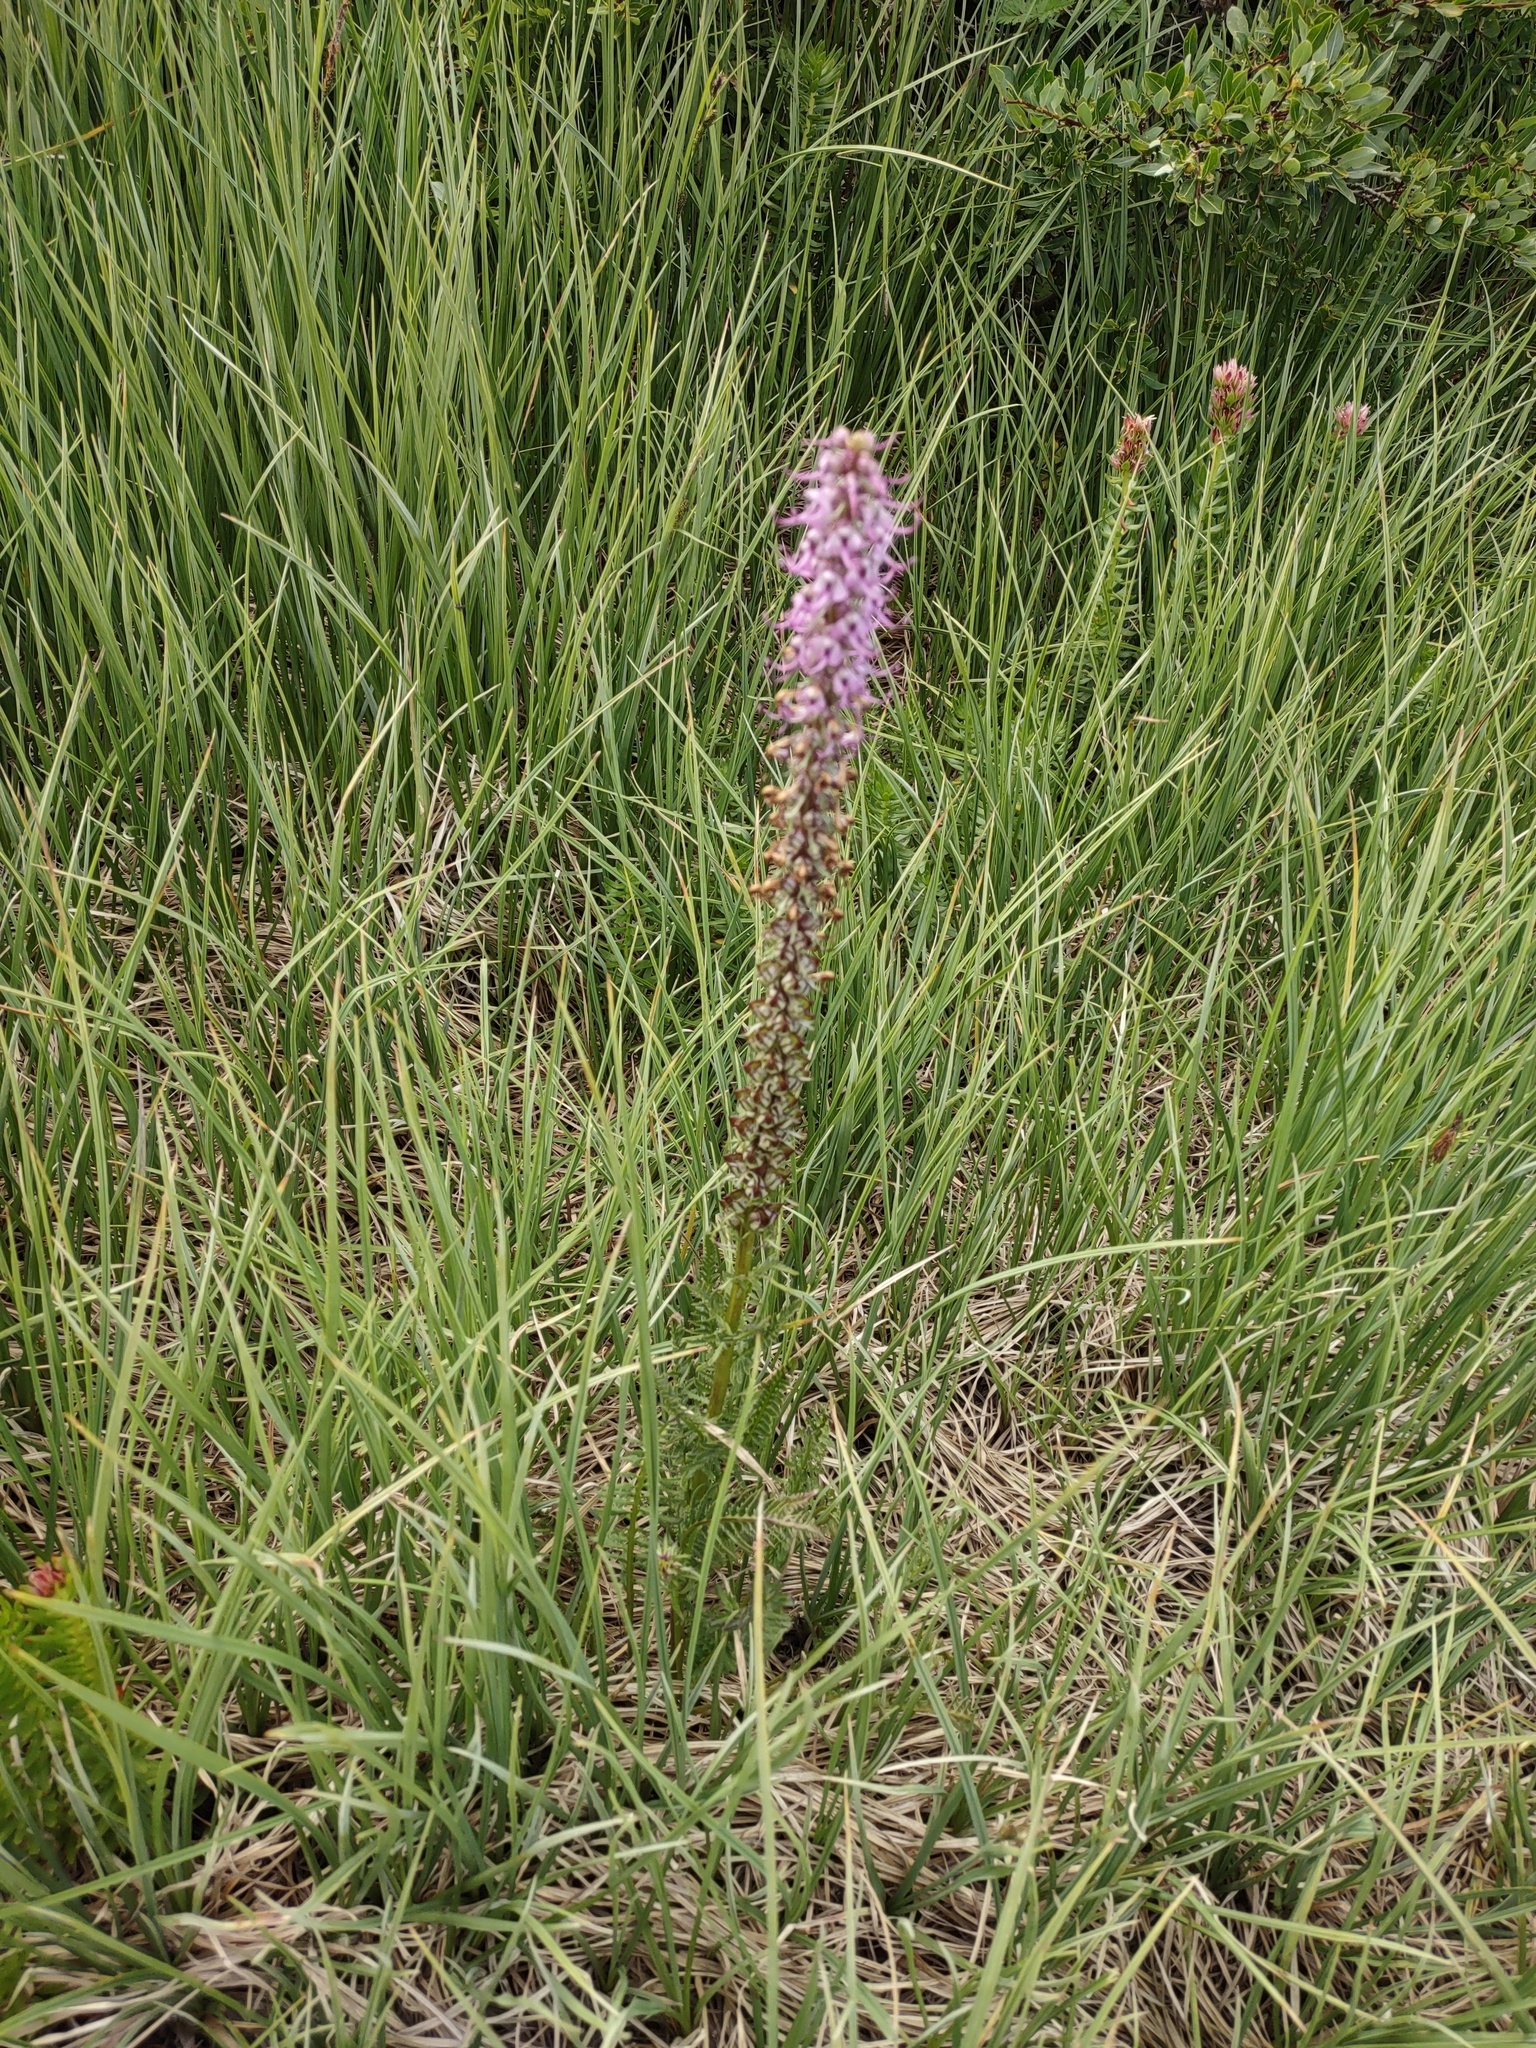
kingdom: Plantae
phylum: Tracheophyta
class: Magnoliopsida
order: Lamiales
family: Orobanchaceae
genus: Pedicularis
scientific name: Pedicularis groenlandica
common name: Elephant's-head
